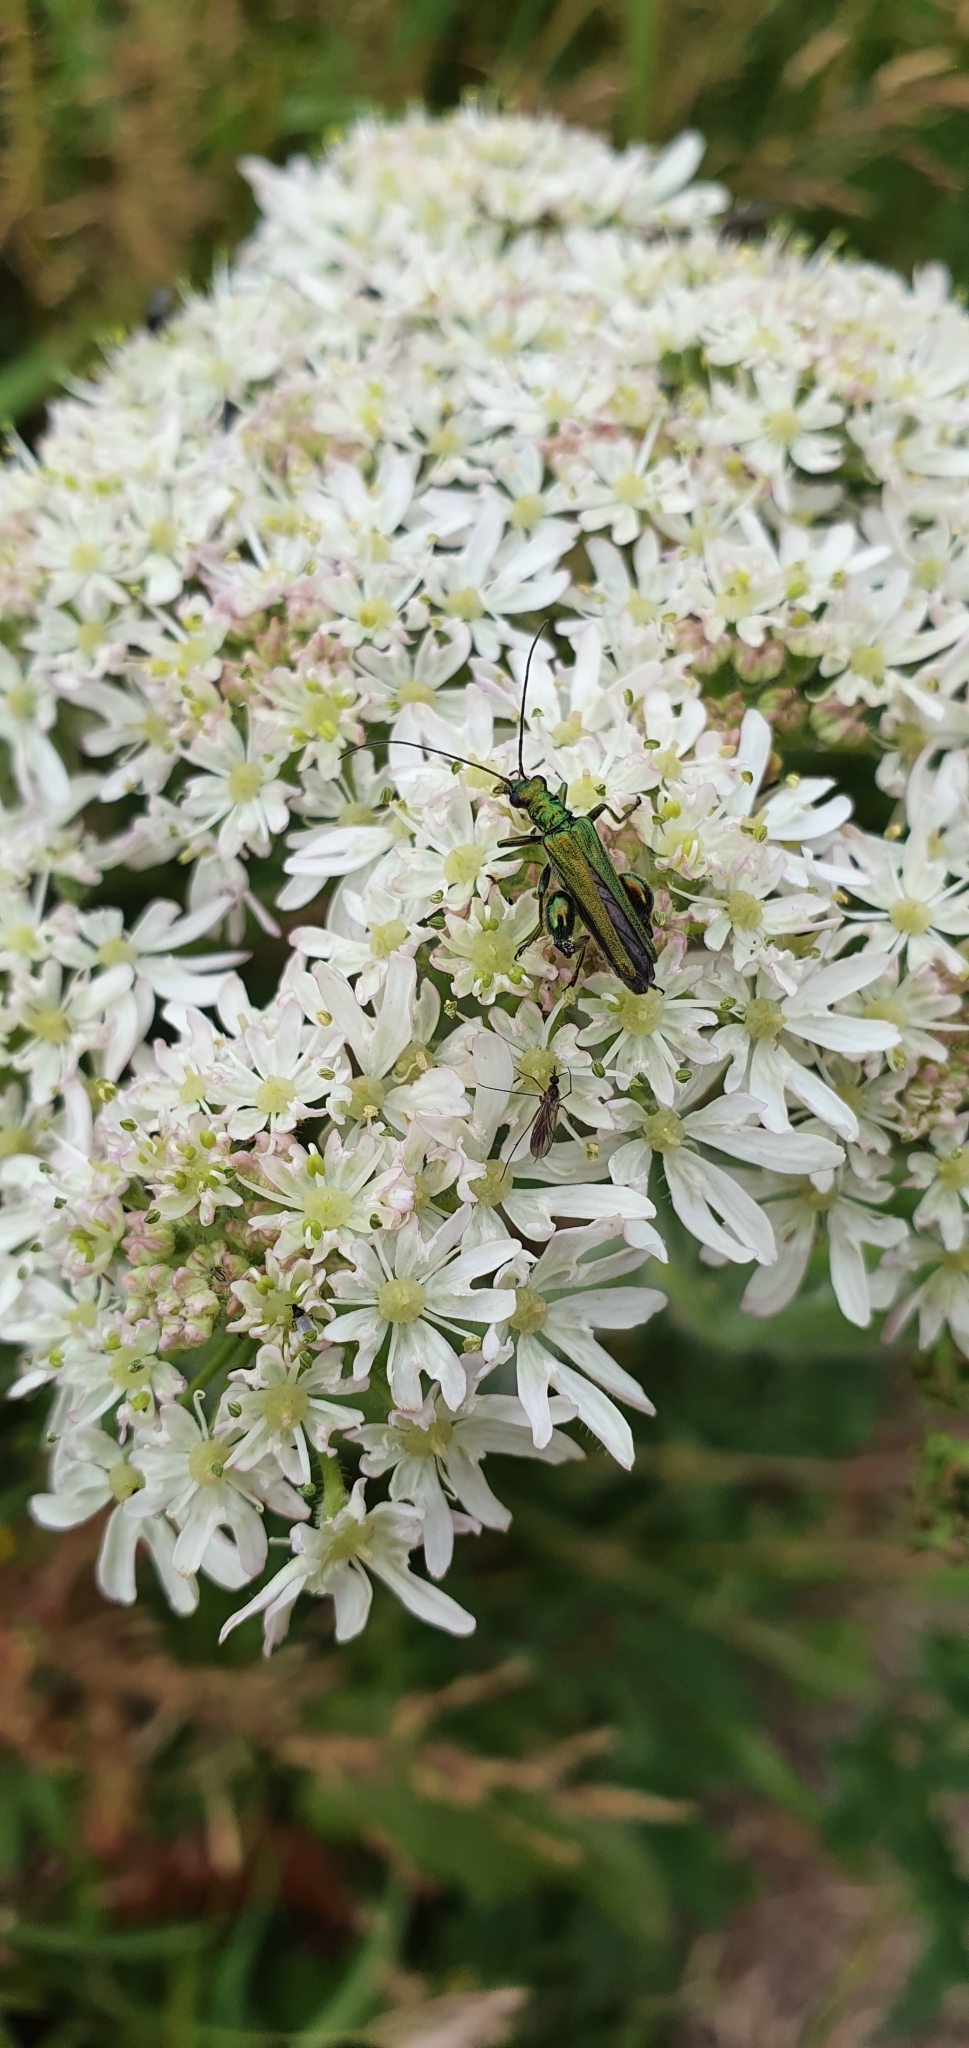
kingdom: Animalia
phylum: Arthropoda
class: Insecta
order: Coleoptera
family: Oedemeridae
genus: Oedemera
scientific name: Oedemera nobilis
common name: Swollen-thighed beetle
